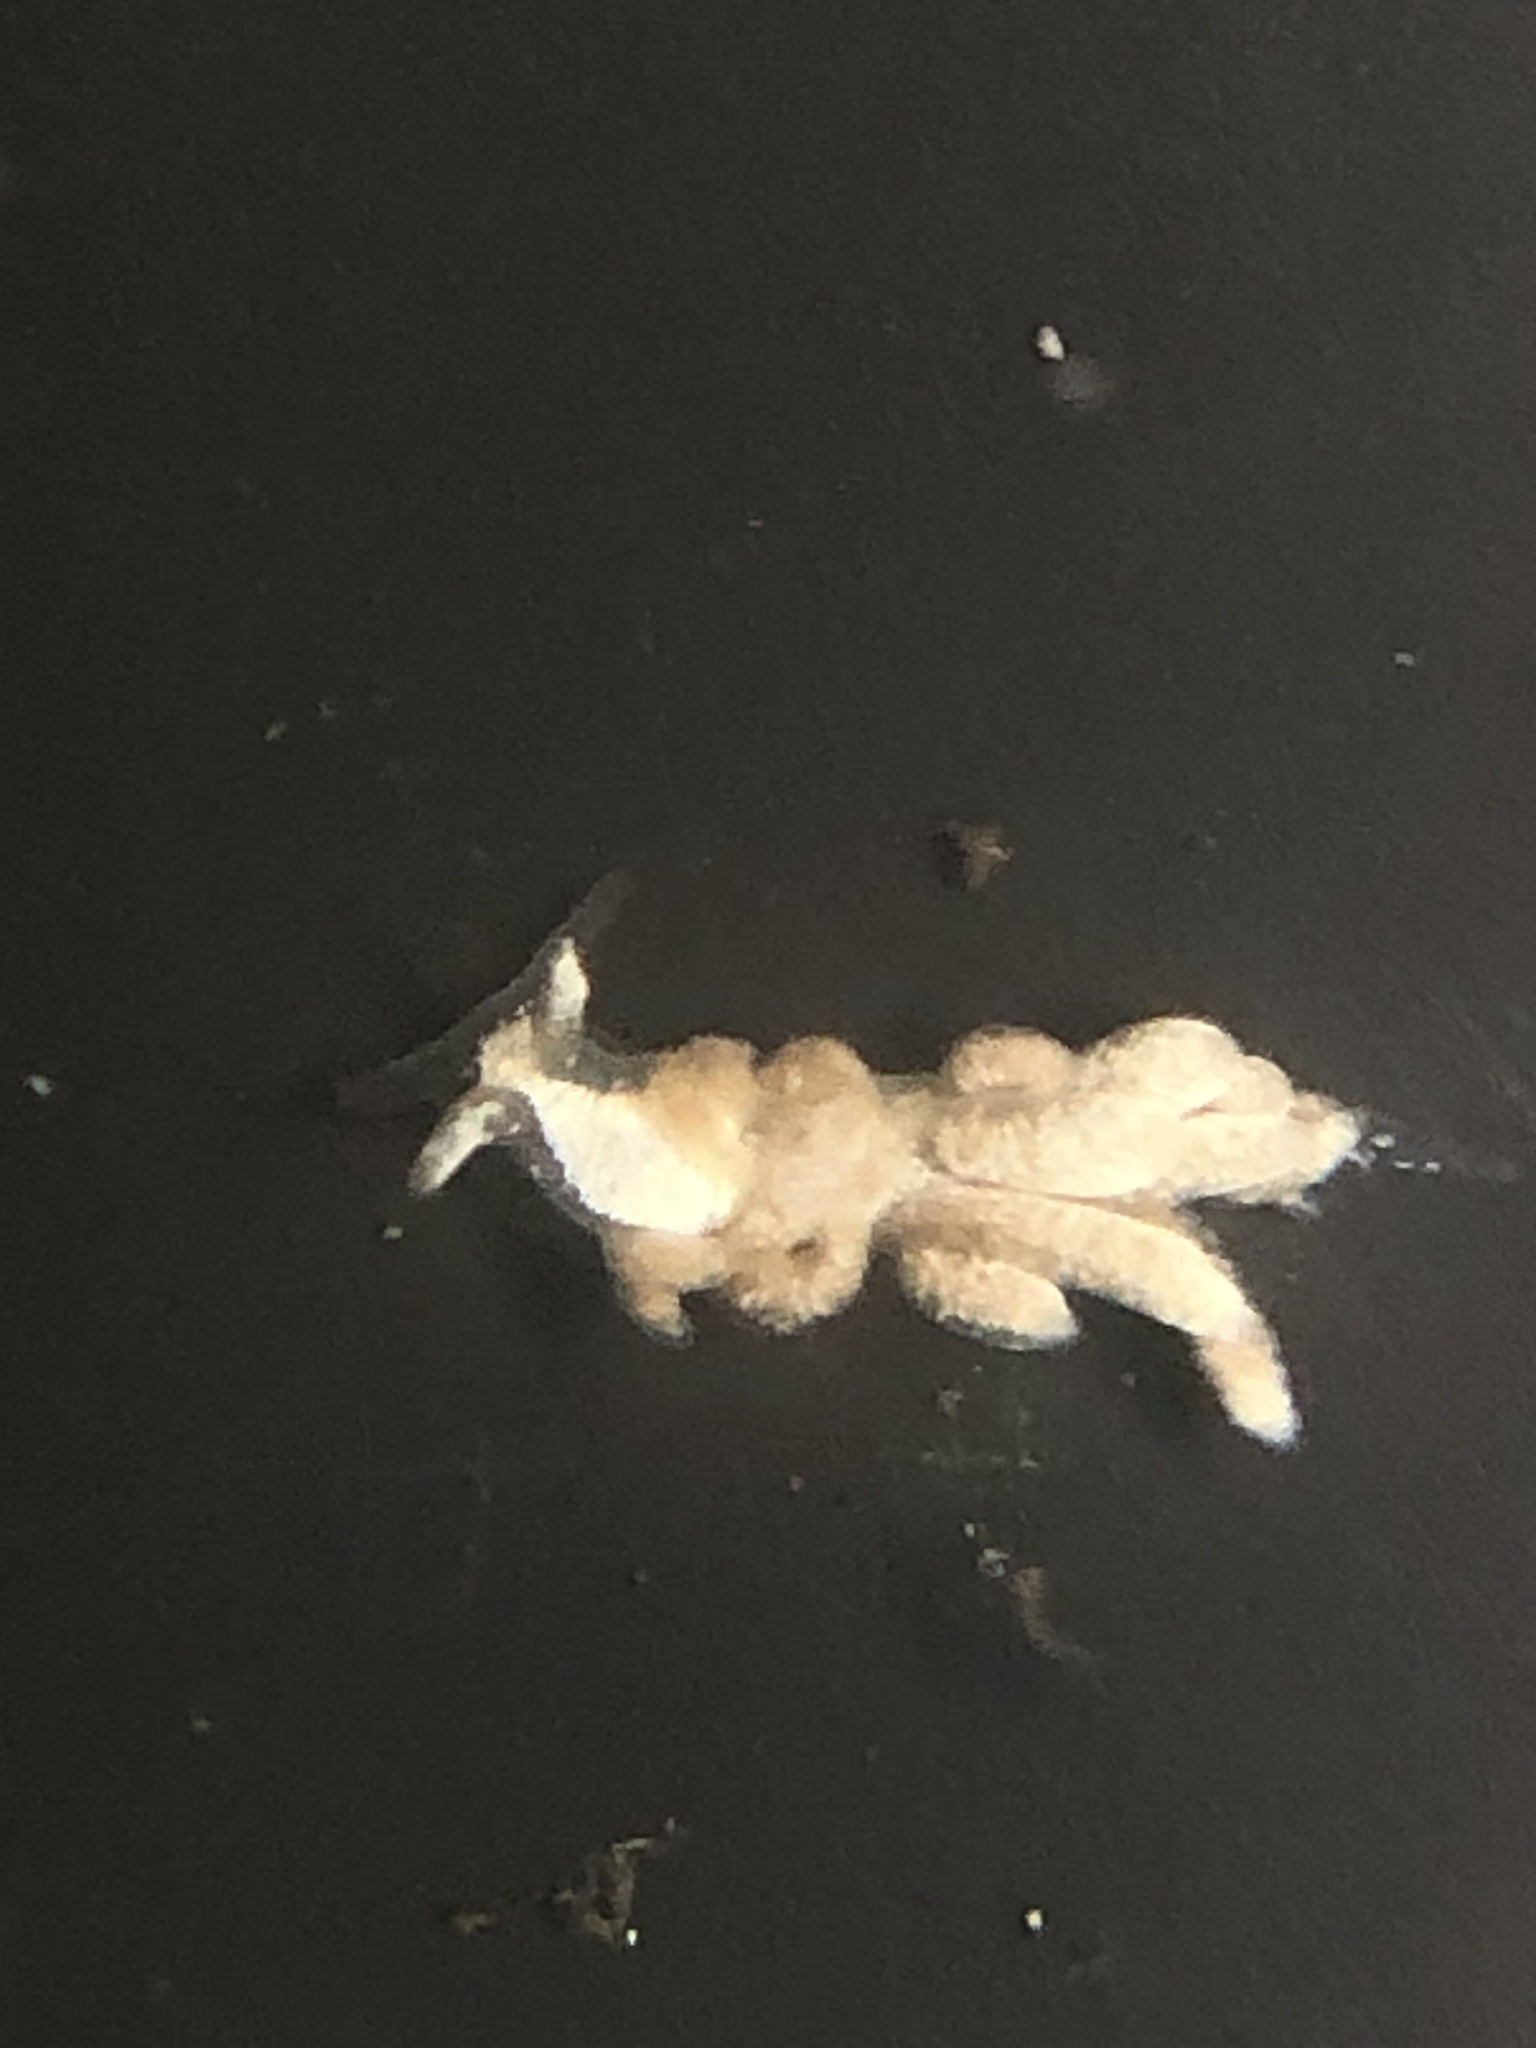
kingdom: Animalia
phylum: Mollusca
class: Gastropoda
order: Nudibranchia
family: Trinchesiidae
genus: Trinchesia
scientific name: Trinchesia albocrusta
